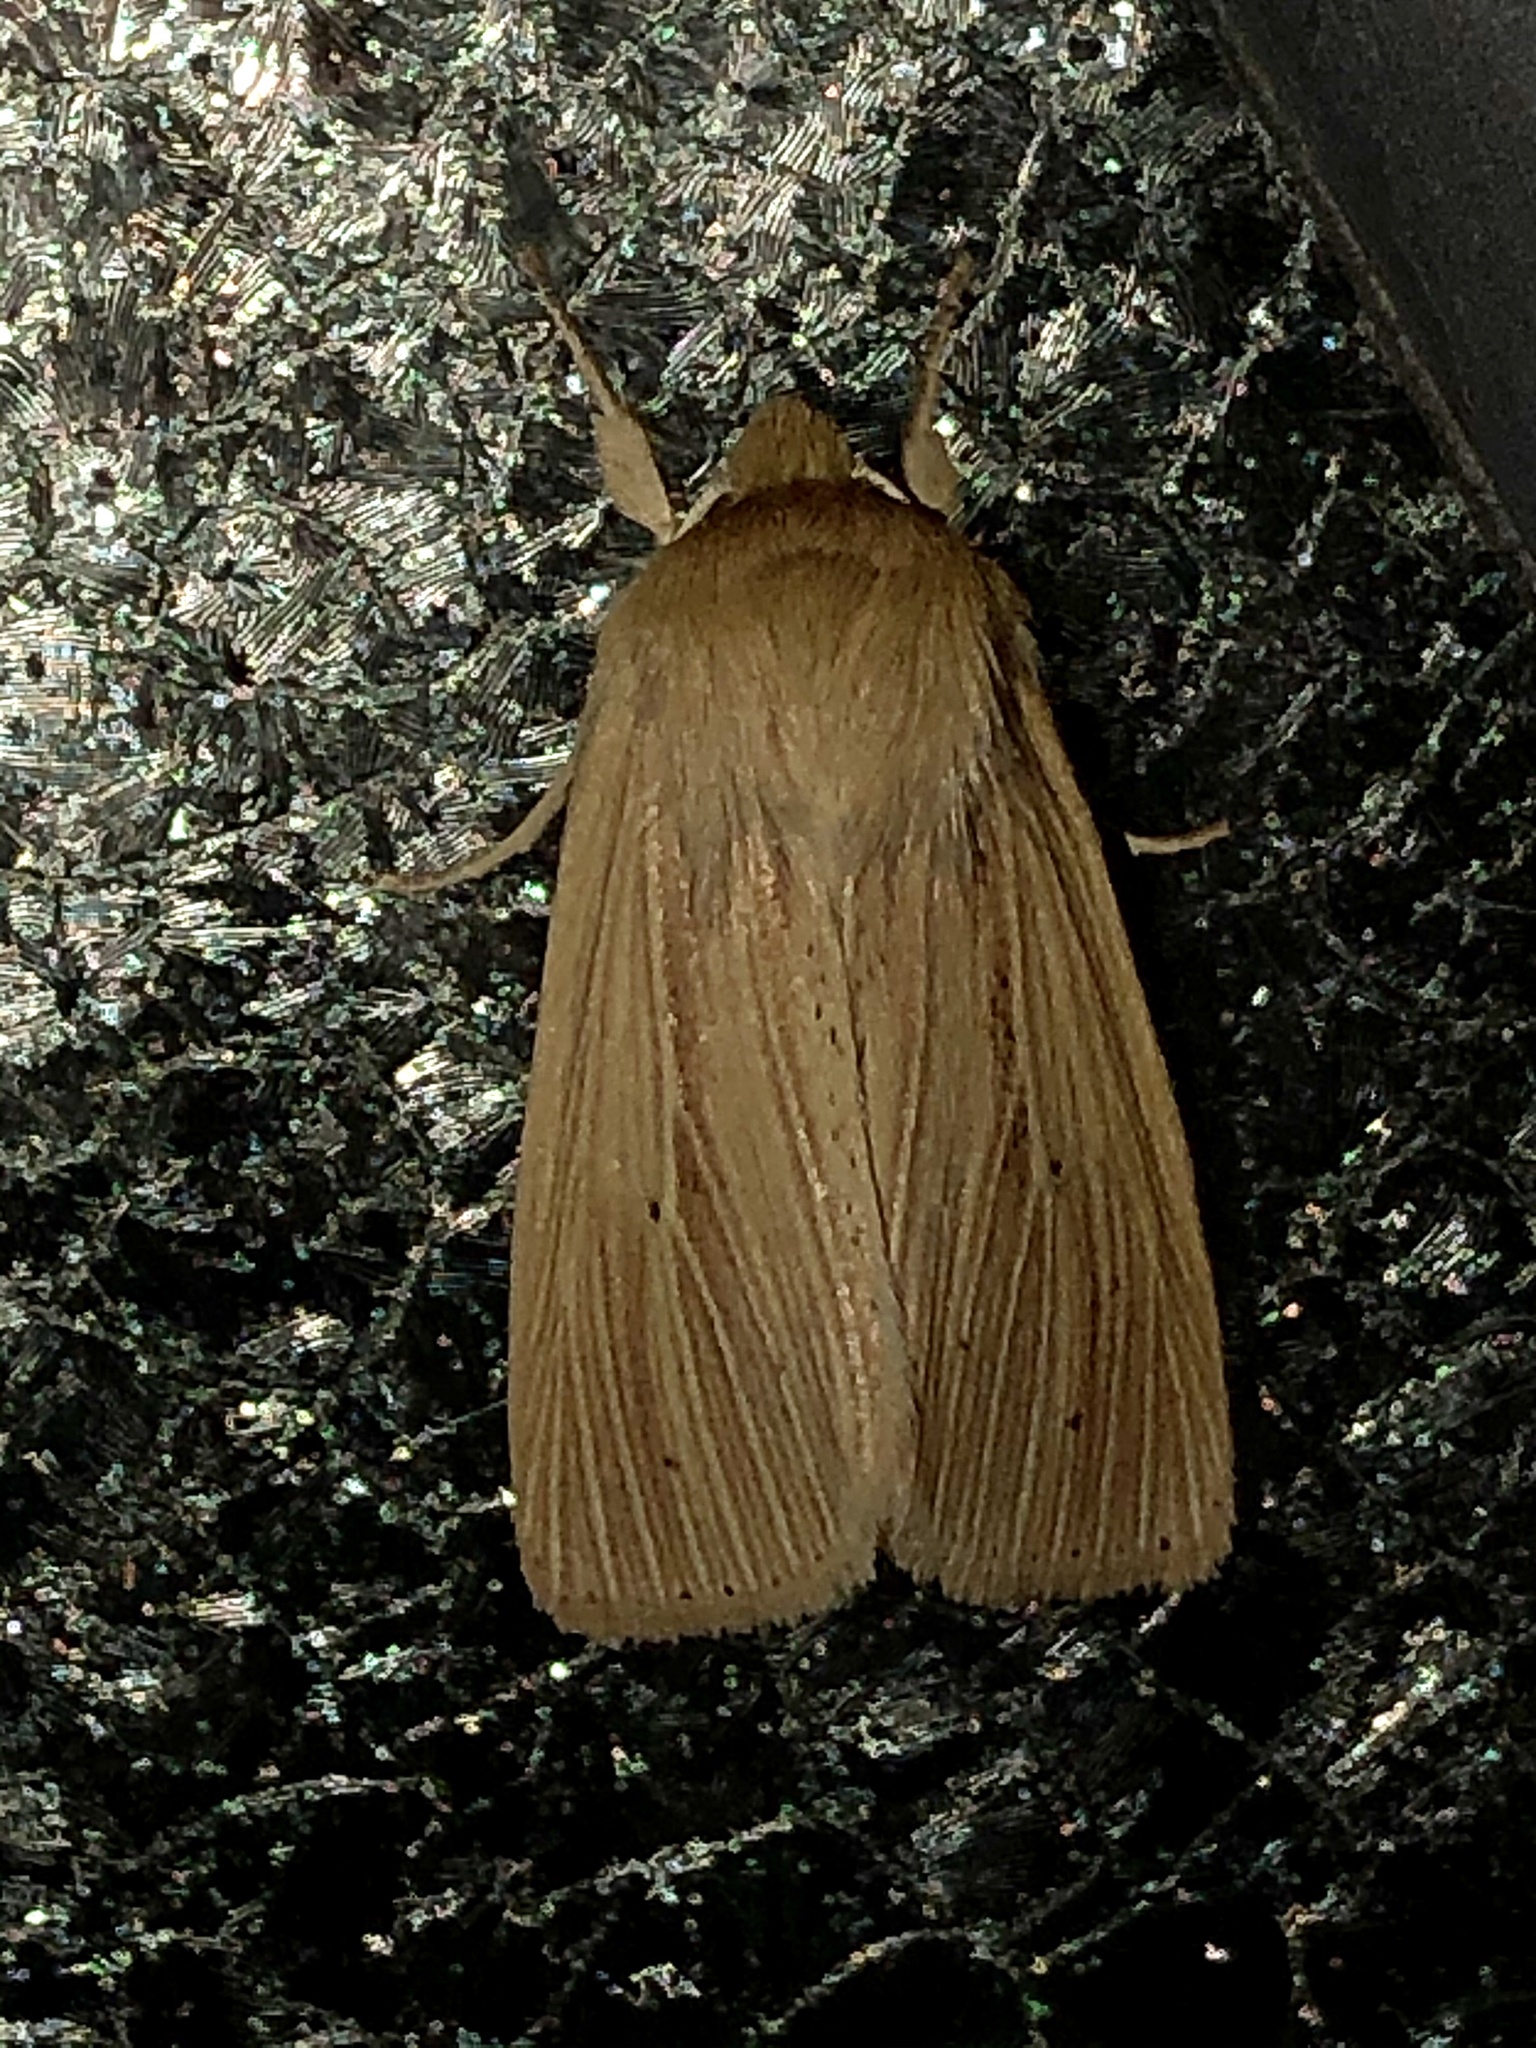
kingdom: Animalia
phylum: Arthropoda
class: Insecta
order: Lepidoptera
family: Noctuidae
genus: Mythimna
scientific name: Mythimna oxygala
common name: Lesser wainscot
